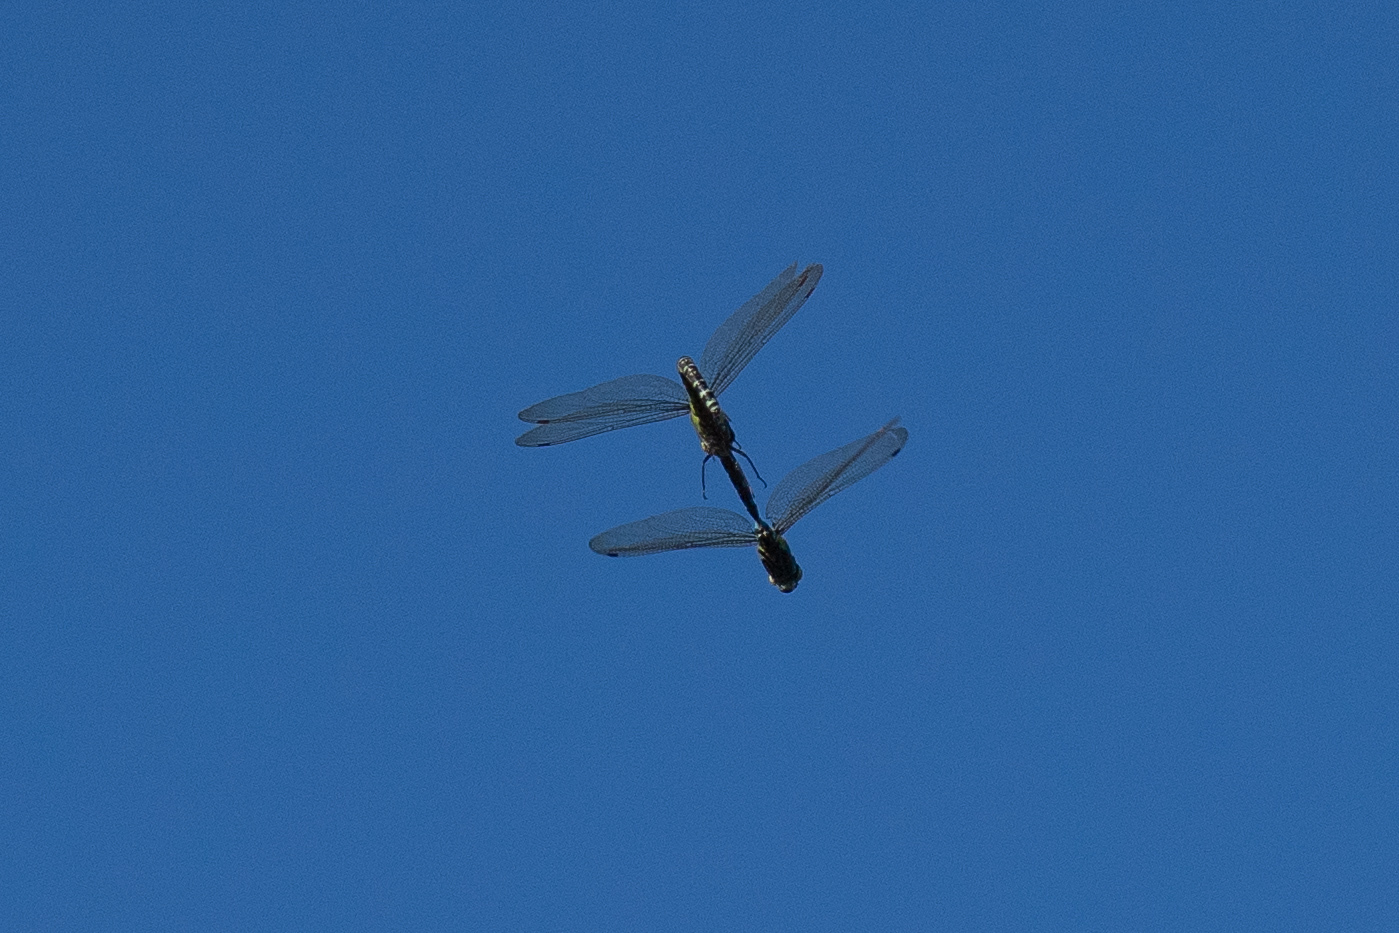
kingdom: Animalia
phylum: Arthropoda
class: Insecta
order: Odonata
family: Aeshnidae
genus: Aeshna
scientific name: Aeshna cyanea
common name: Southern hawker
